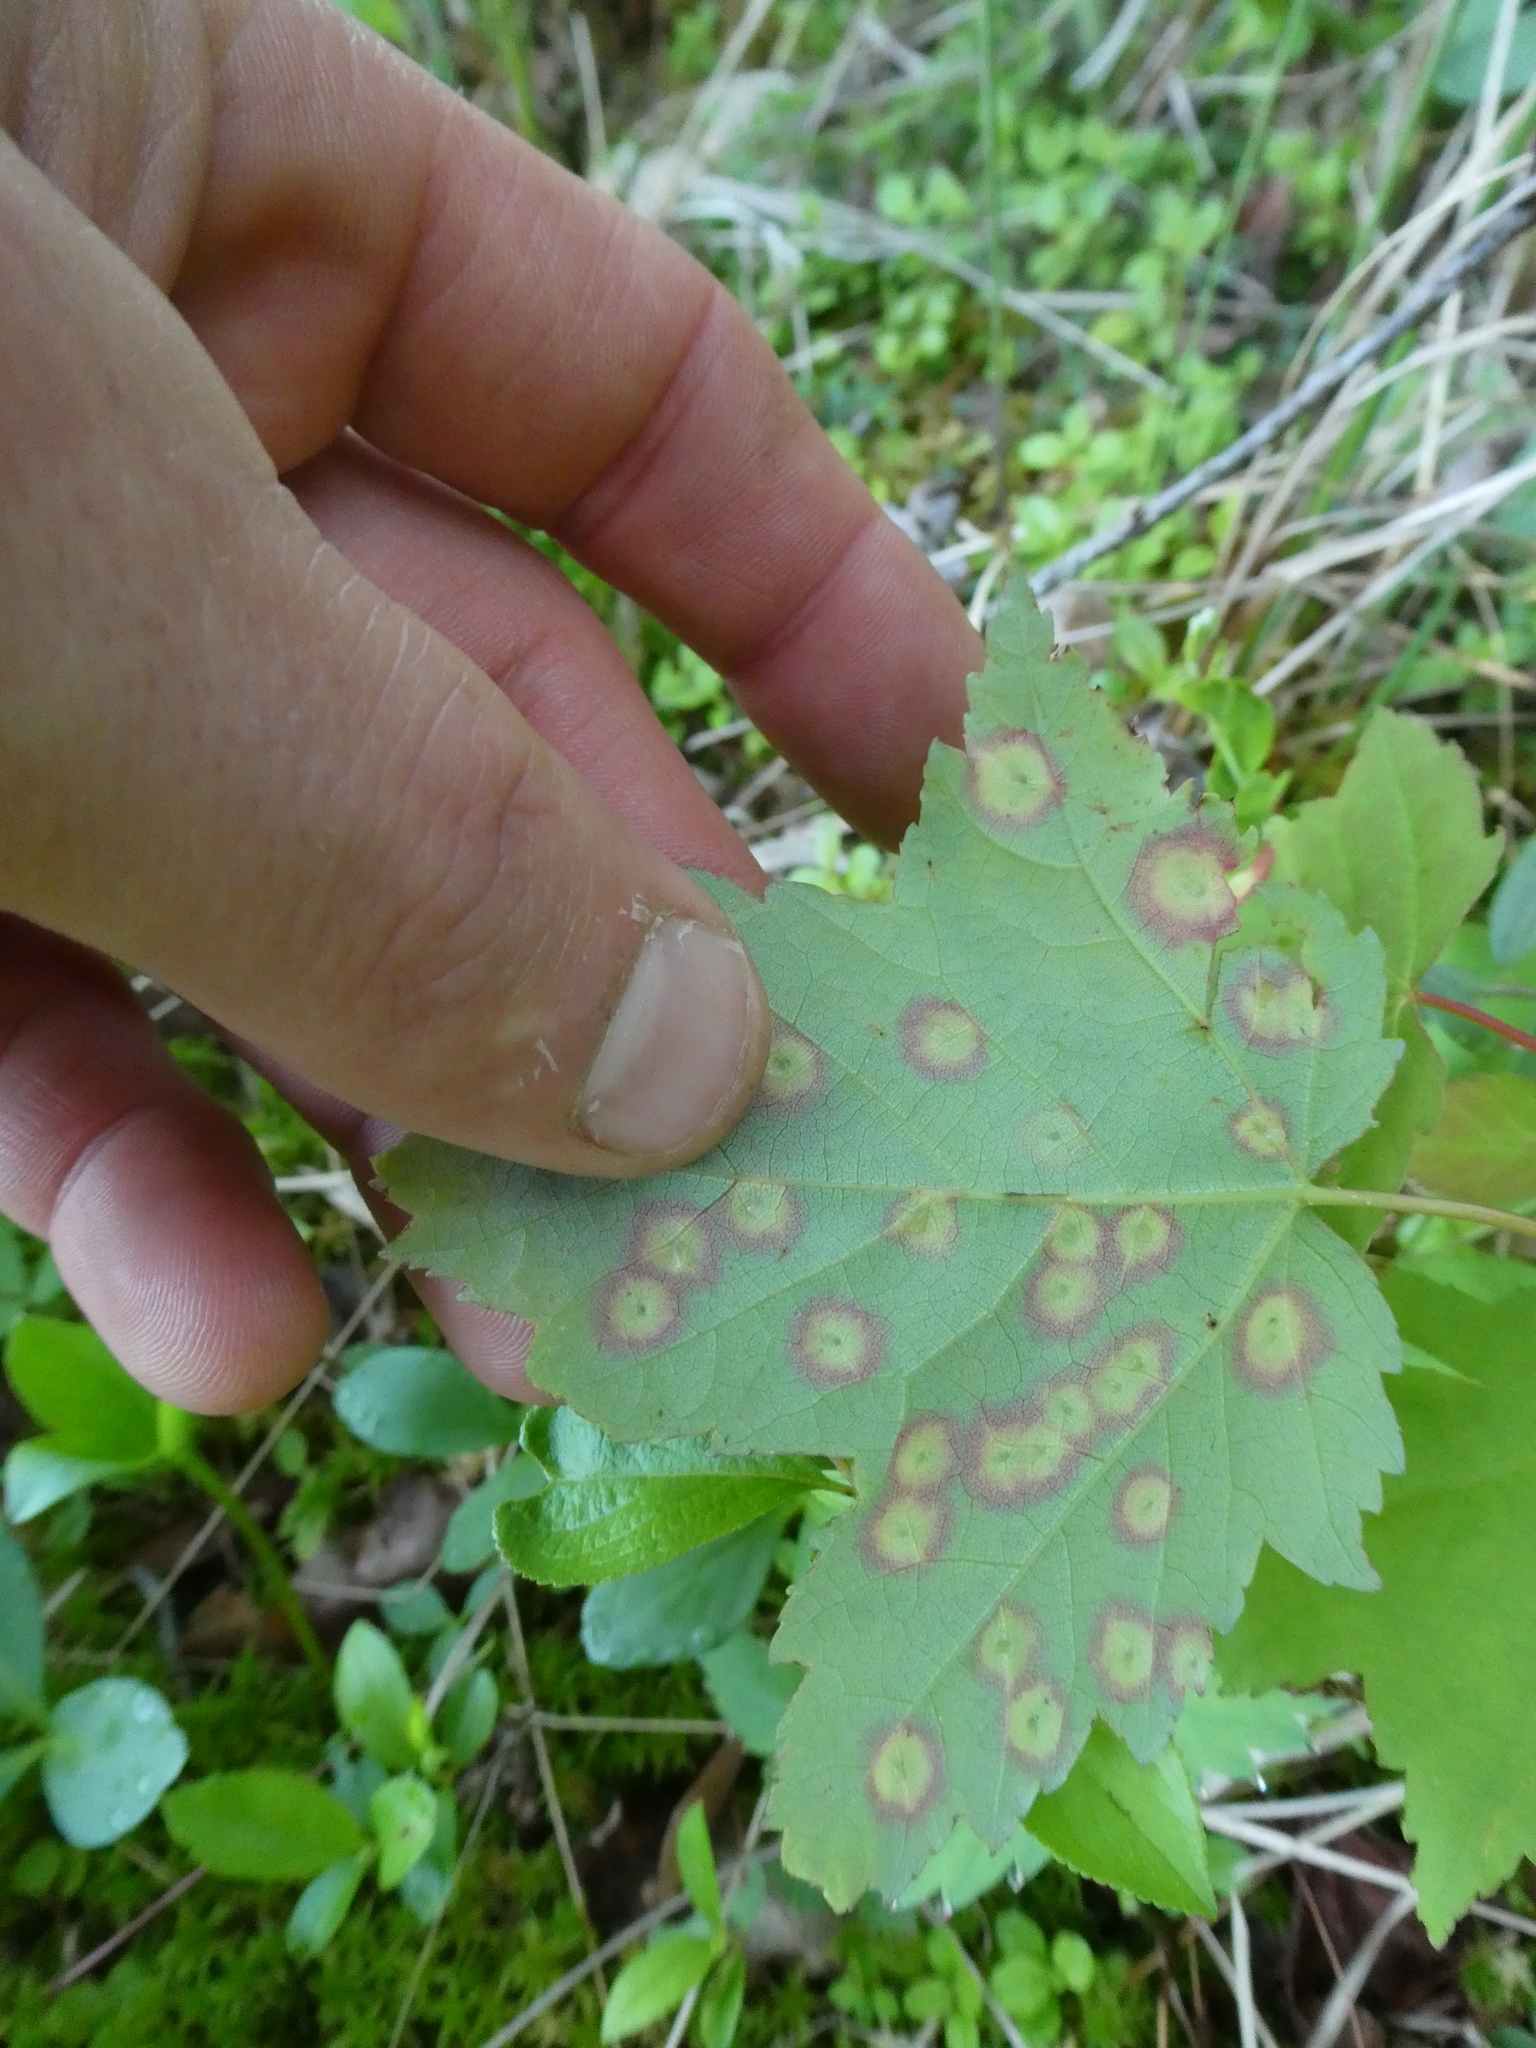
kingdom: Animalia
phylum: Arthropoda
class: Insecta
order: Diptera
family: Cecidomyiidae
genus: Acericecis
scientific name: Acericecis ocellaris
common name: Ocellate gall midge
